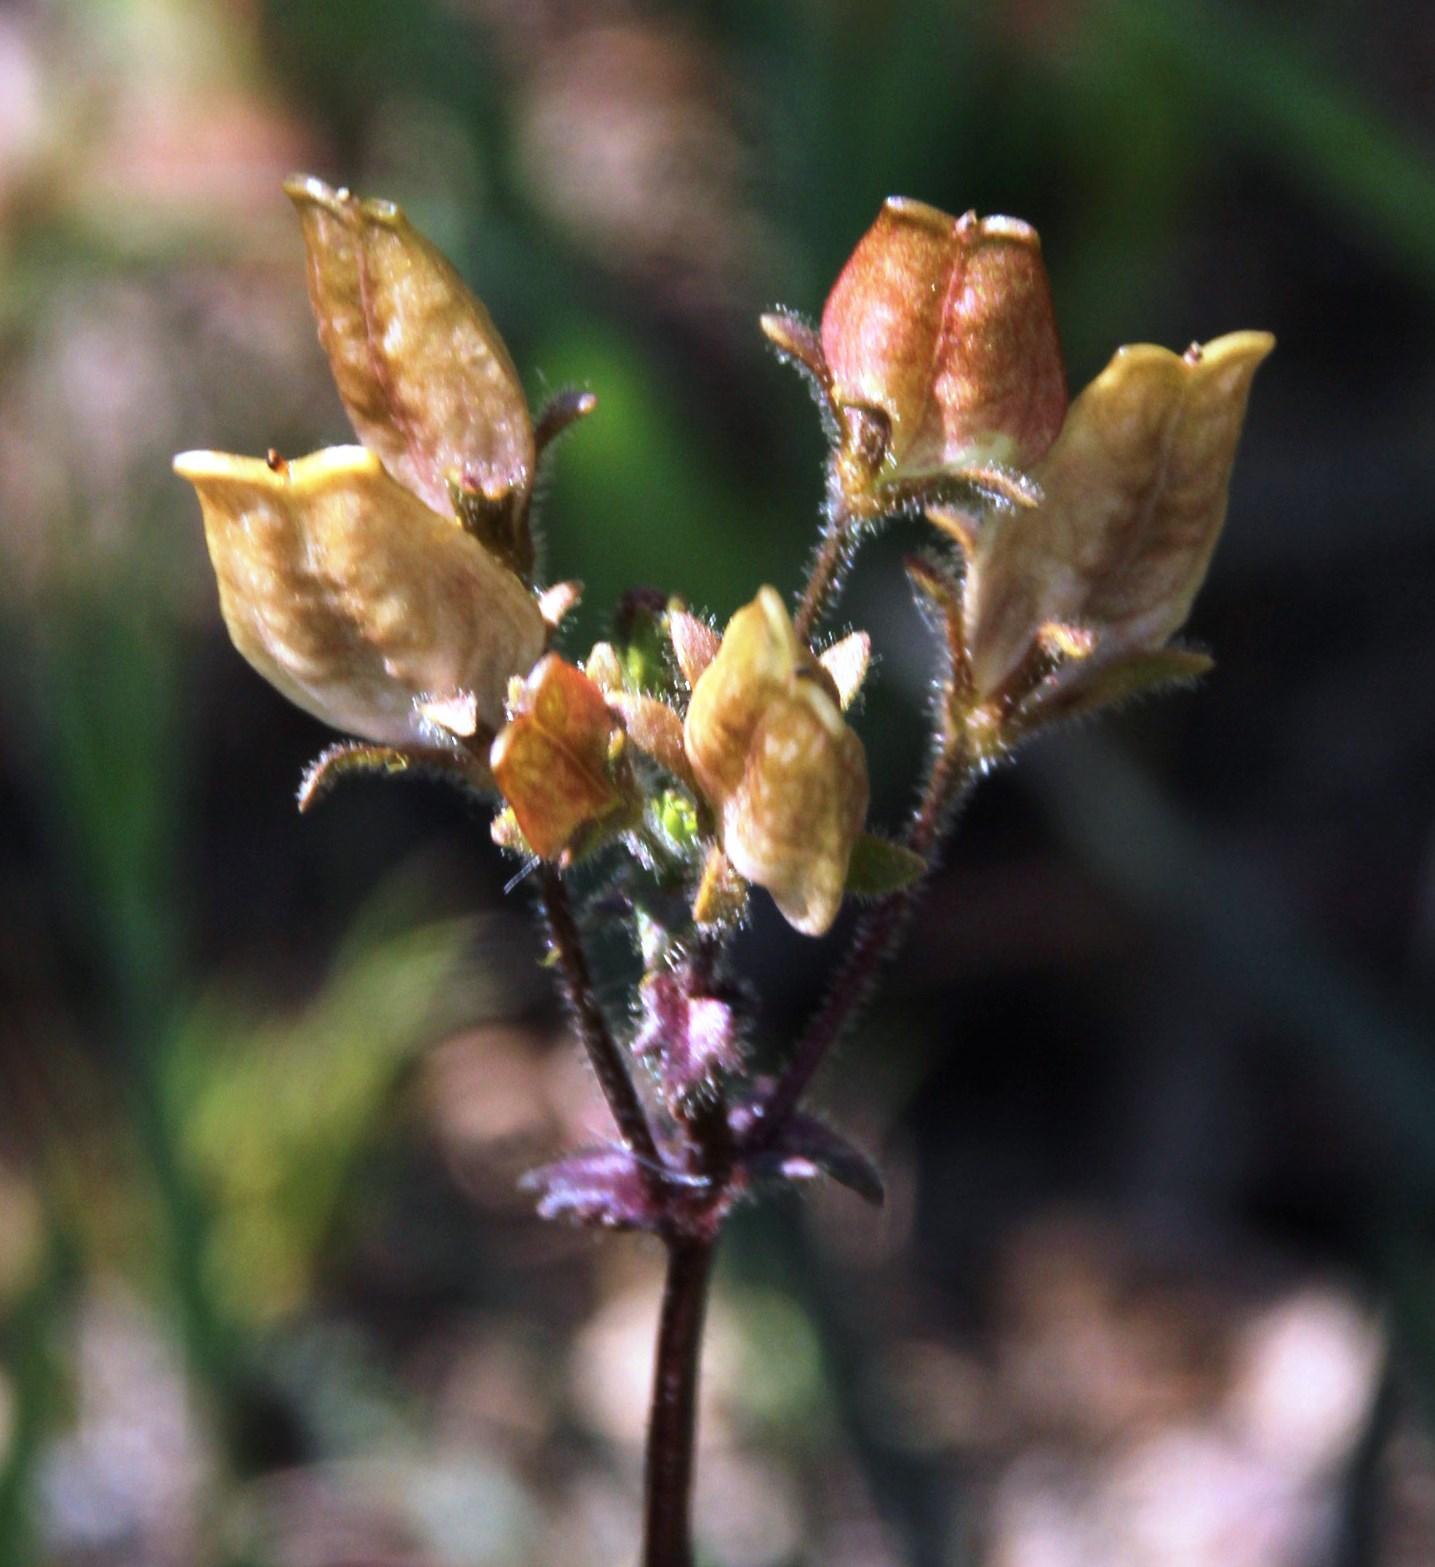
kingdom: Plantae
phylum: Tracheophyta
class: Magnoliopsida
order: Lamiales
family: Scrophulariaceae
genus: Nemesia
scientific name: Nemesia affinis
